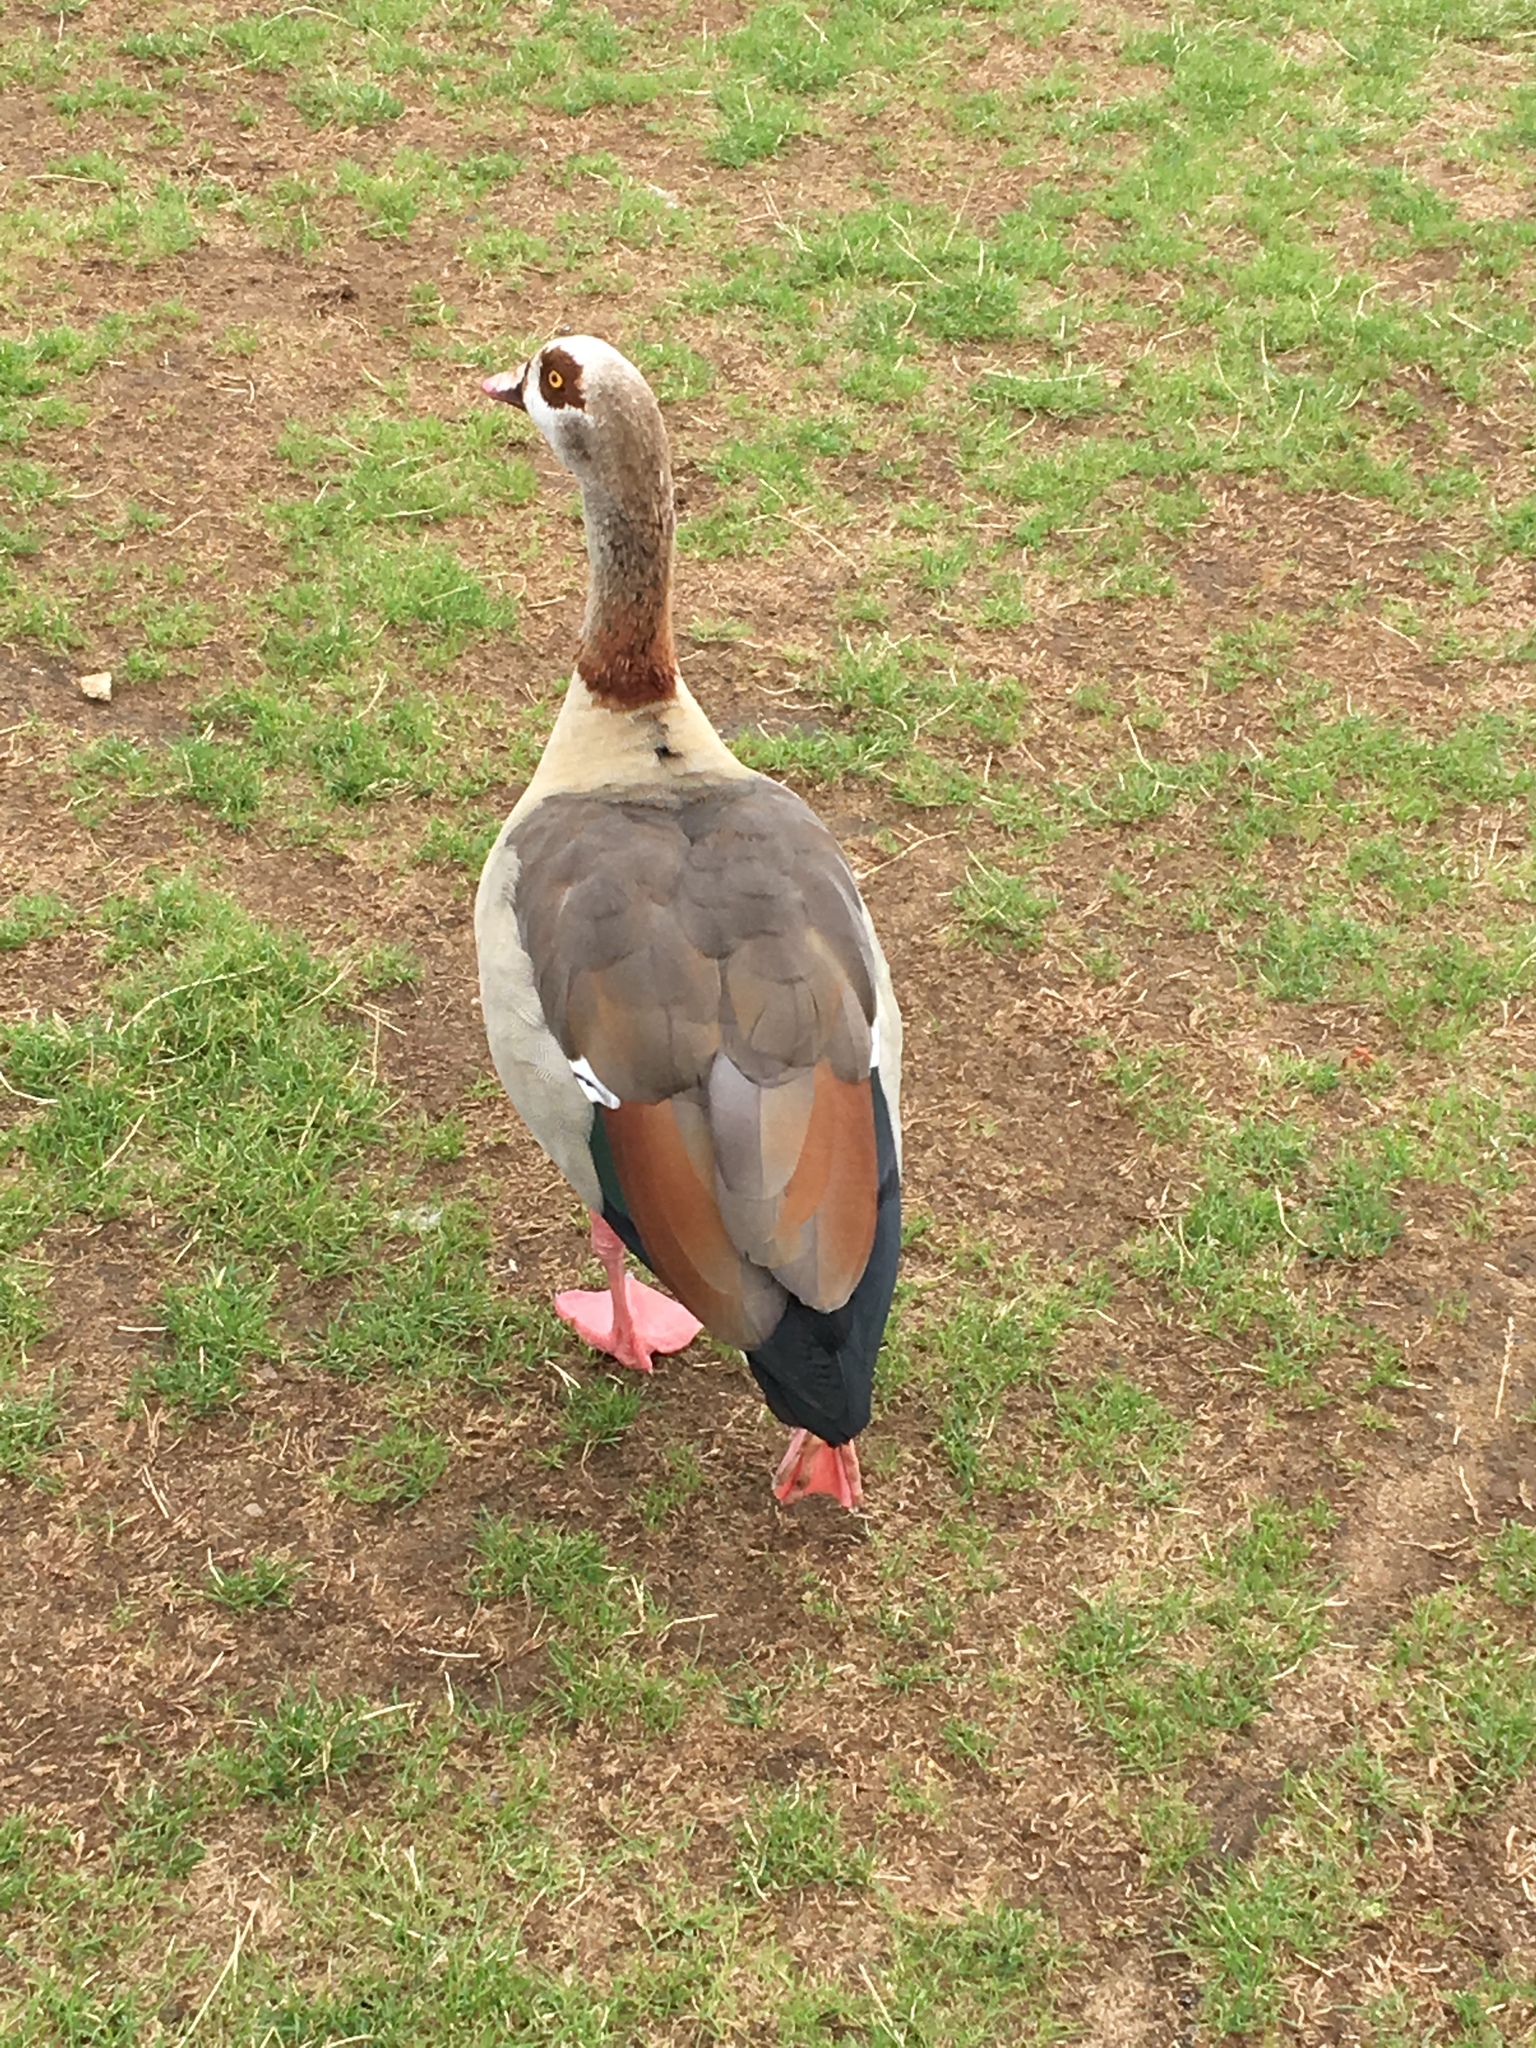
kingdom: Animalia
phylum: Chordata
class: Aves
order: Anseriformes
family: Anatidae
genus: Alopochen
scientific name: Alopochen aegyptiaca
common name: Egyptian goose
